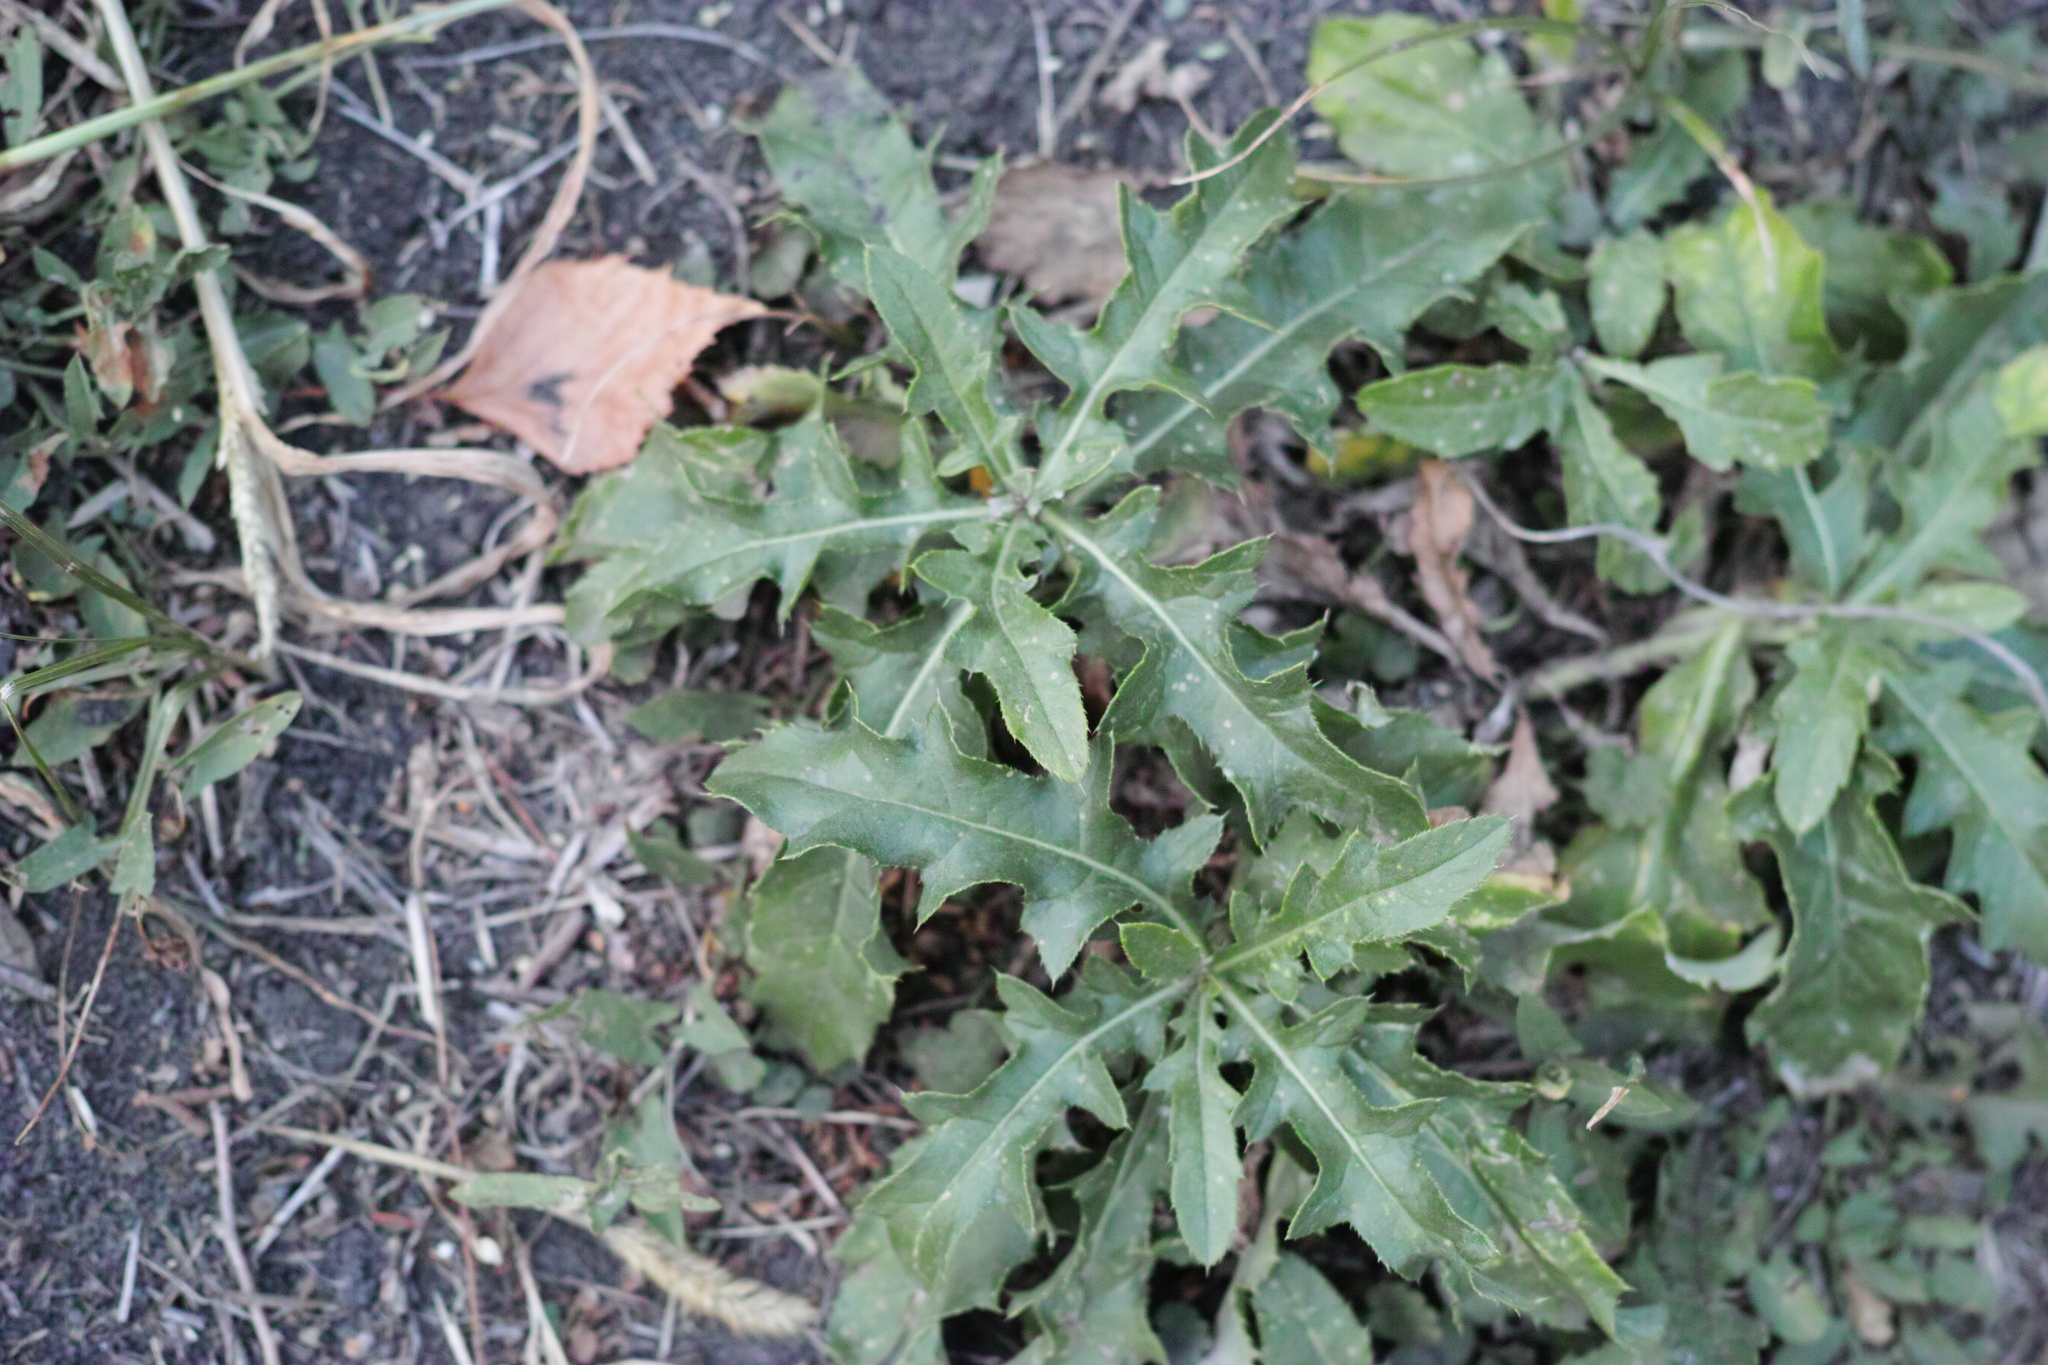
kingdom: Plantae
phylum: Tracheophyta
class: Magnoliopsida
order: Asterales
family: Asteraceae
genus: Cirsium
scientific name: Cirsium arvense
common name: Creeping thistle
